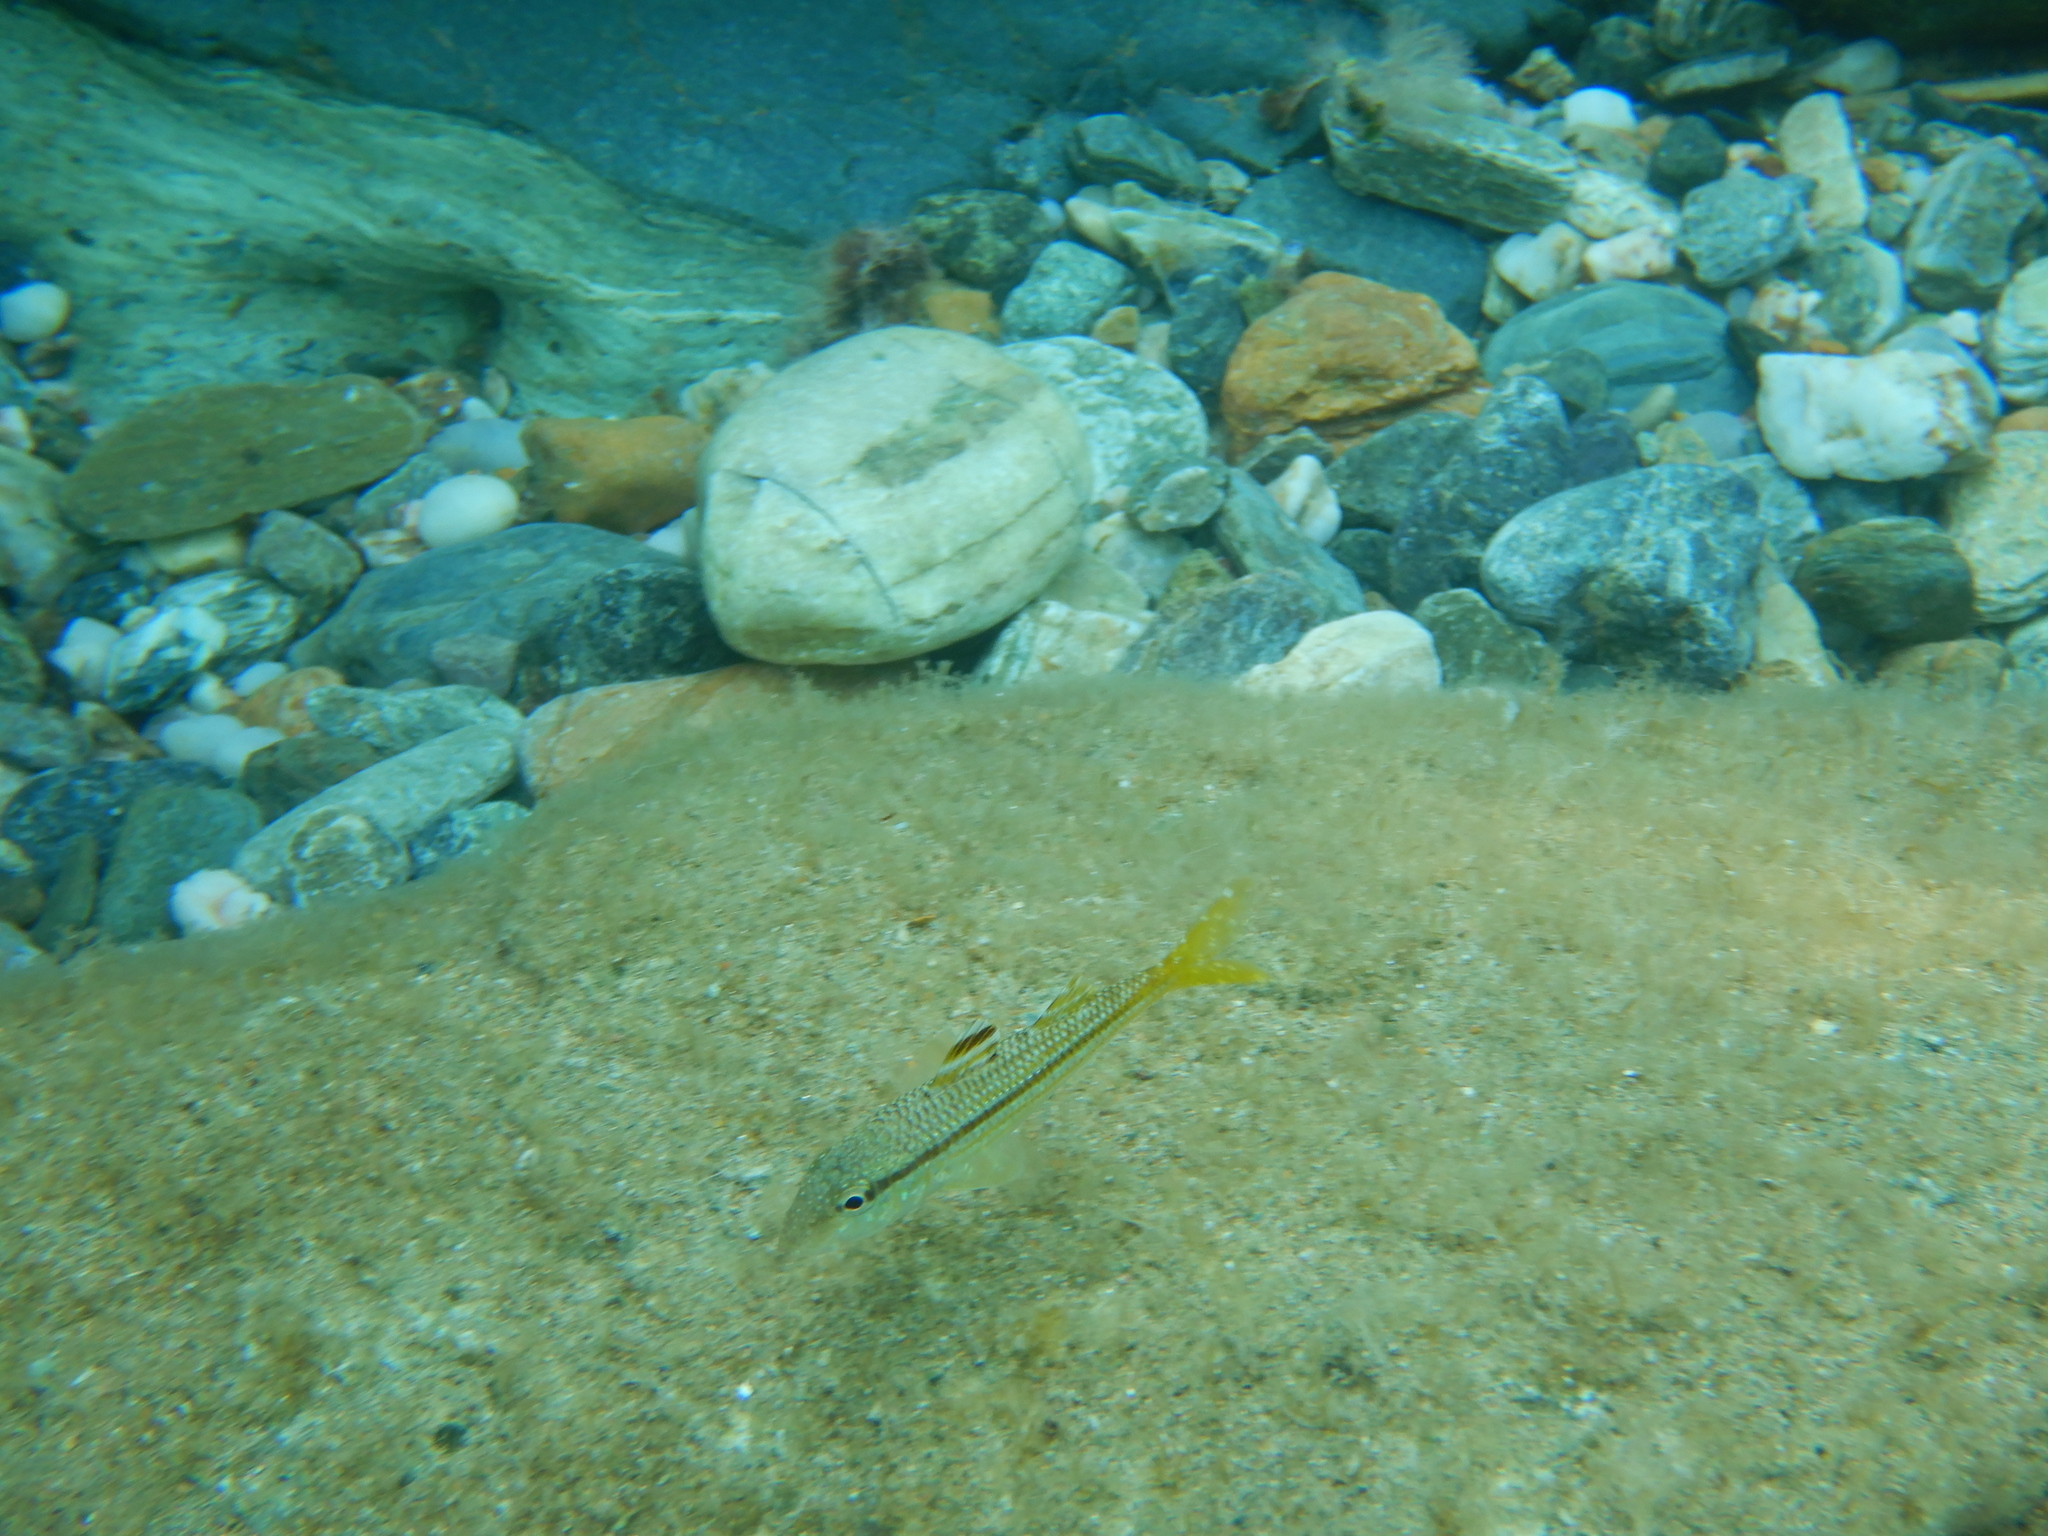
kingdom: Animalia
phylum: Chordata
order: Perciformes
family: Mullidae
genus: Mullus
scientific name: Mullus surmuletus
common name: Red mullet
